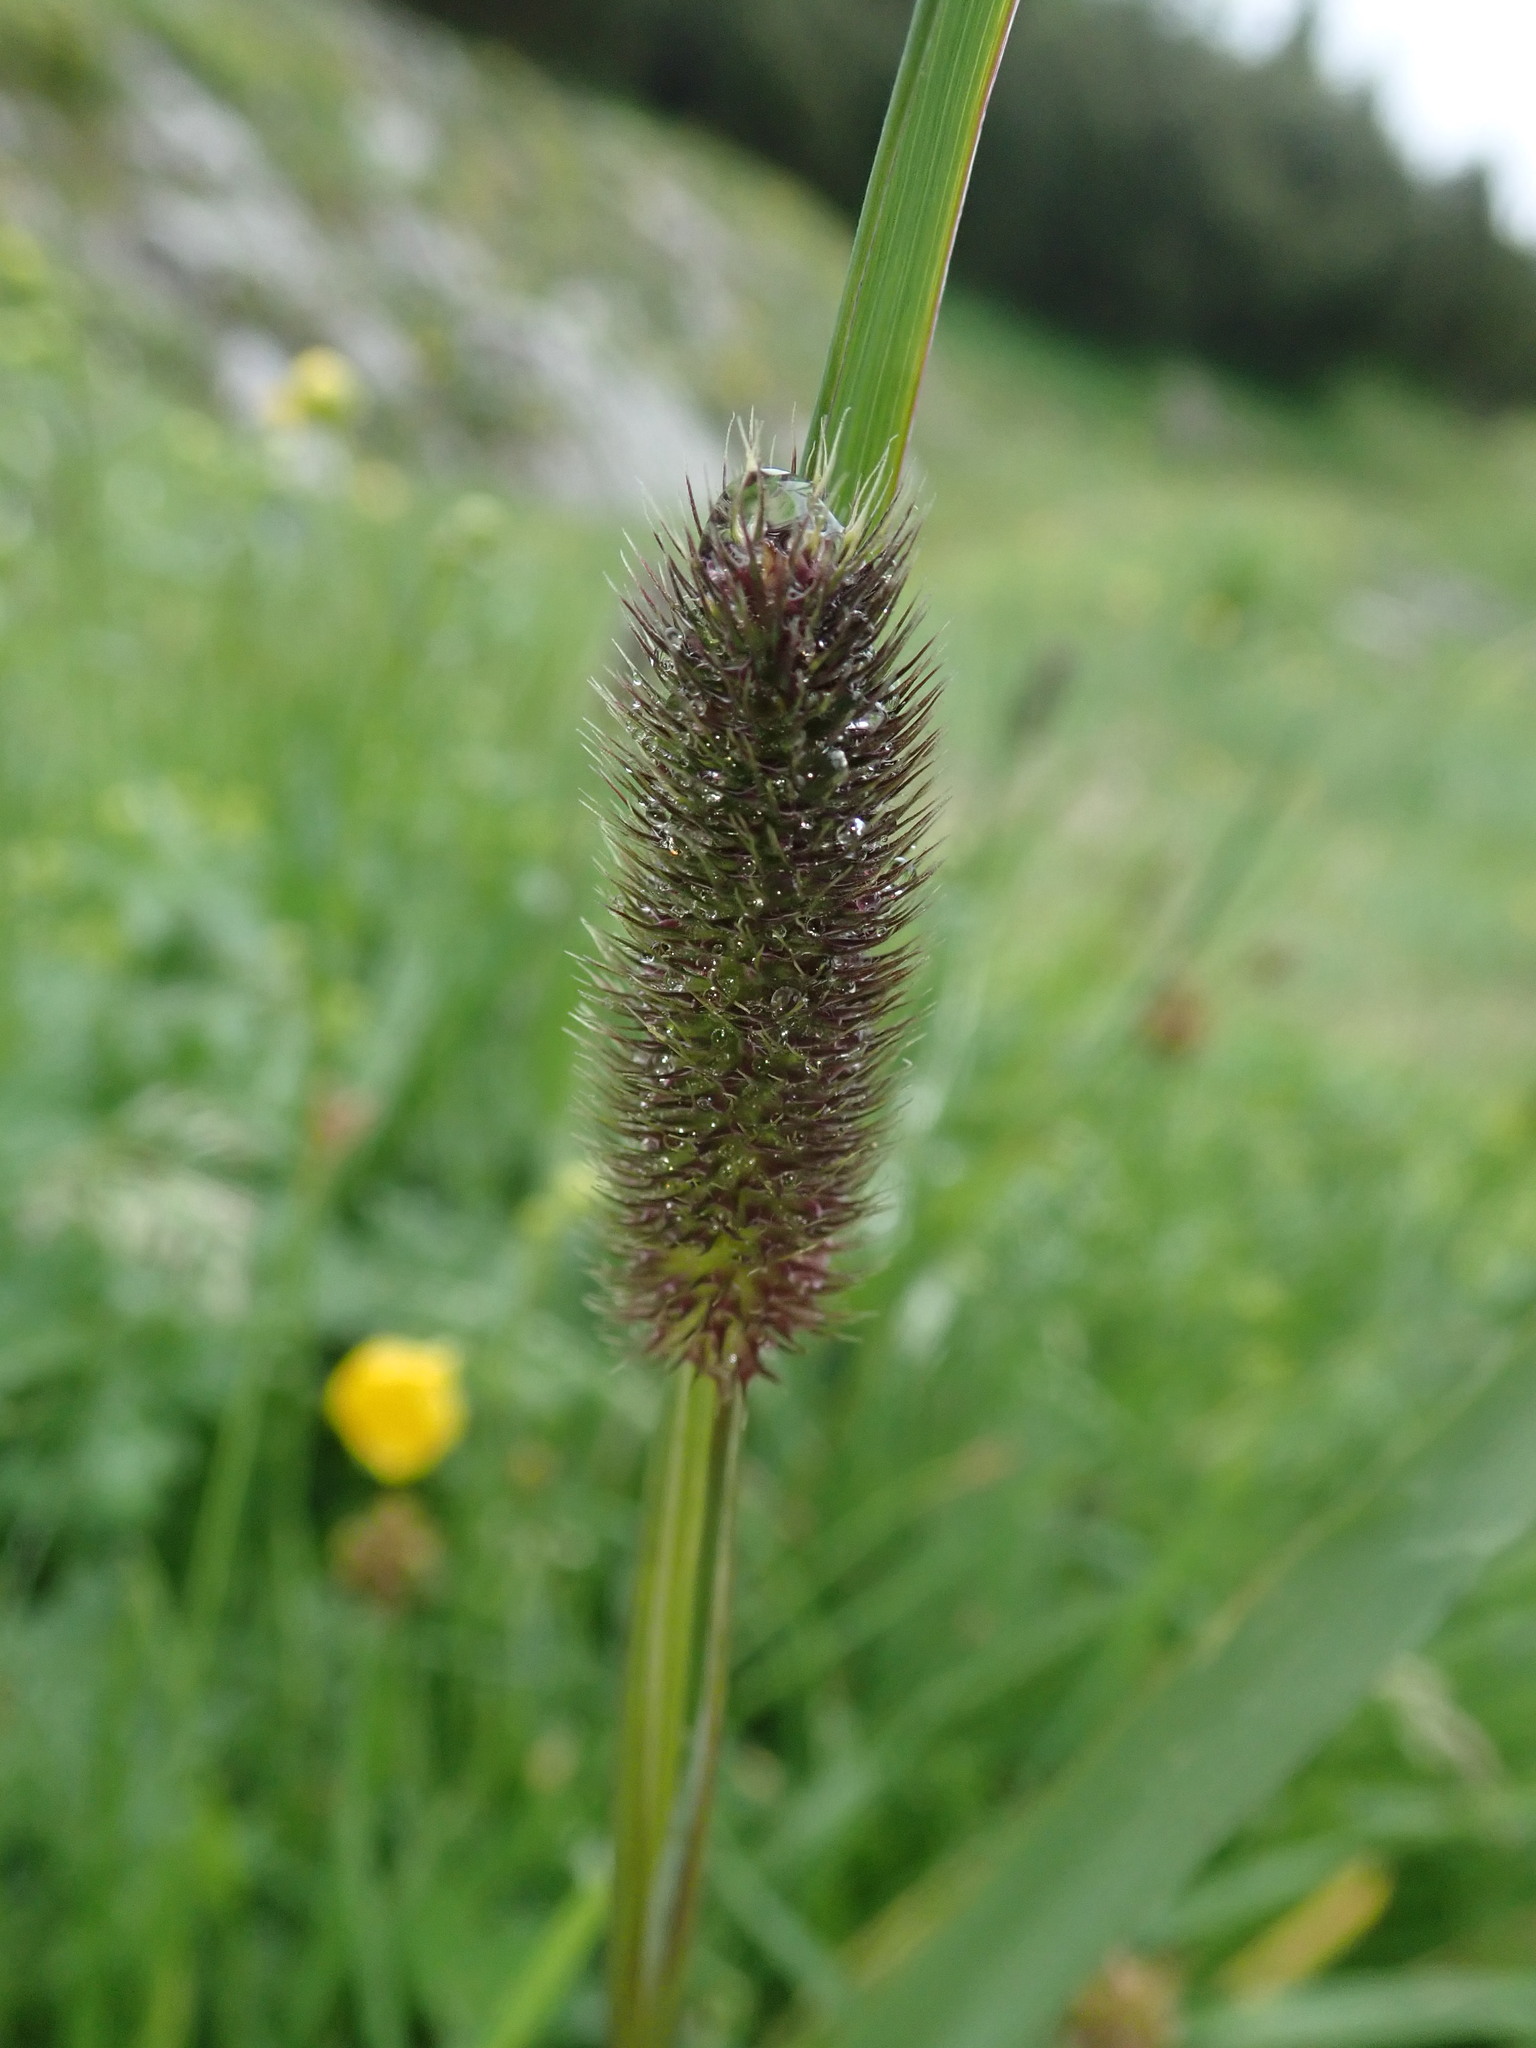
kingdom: Plantae
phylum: Tracheophyta
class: Liliopsida
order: Poales
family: Poaceae
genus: Phleum
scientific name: Phleum alpinum
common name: Alpine cat's-tail
